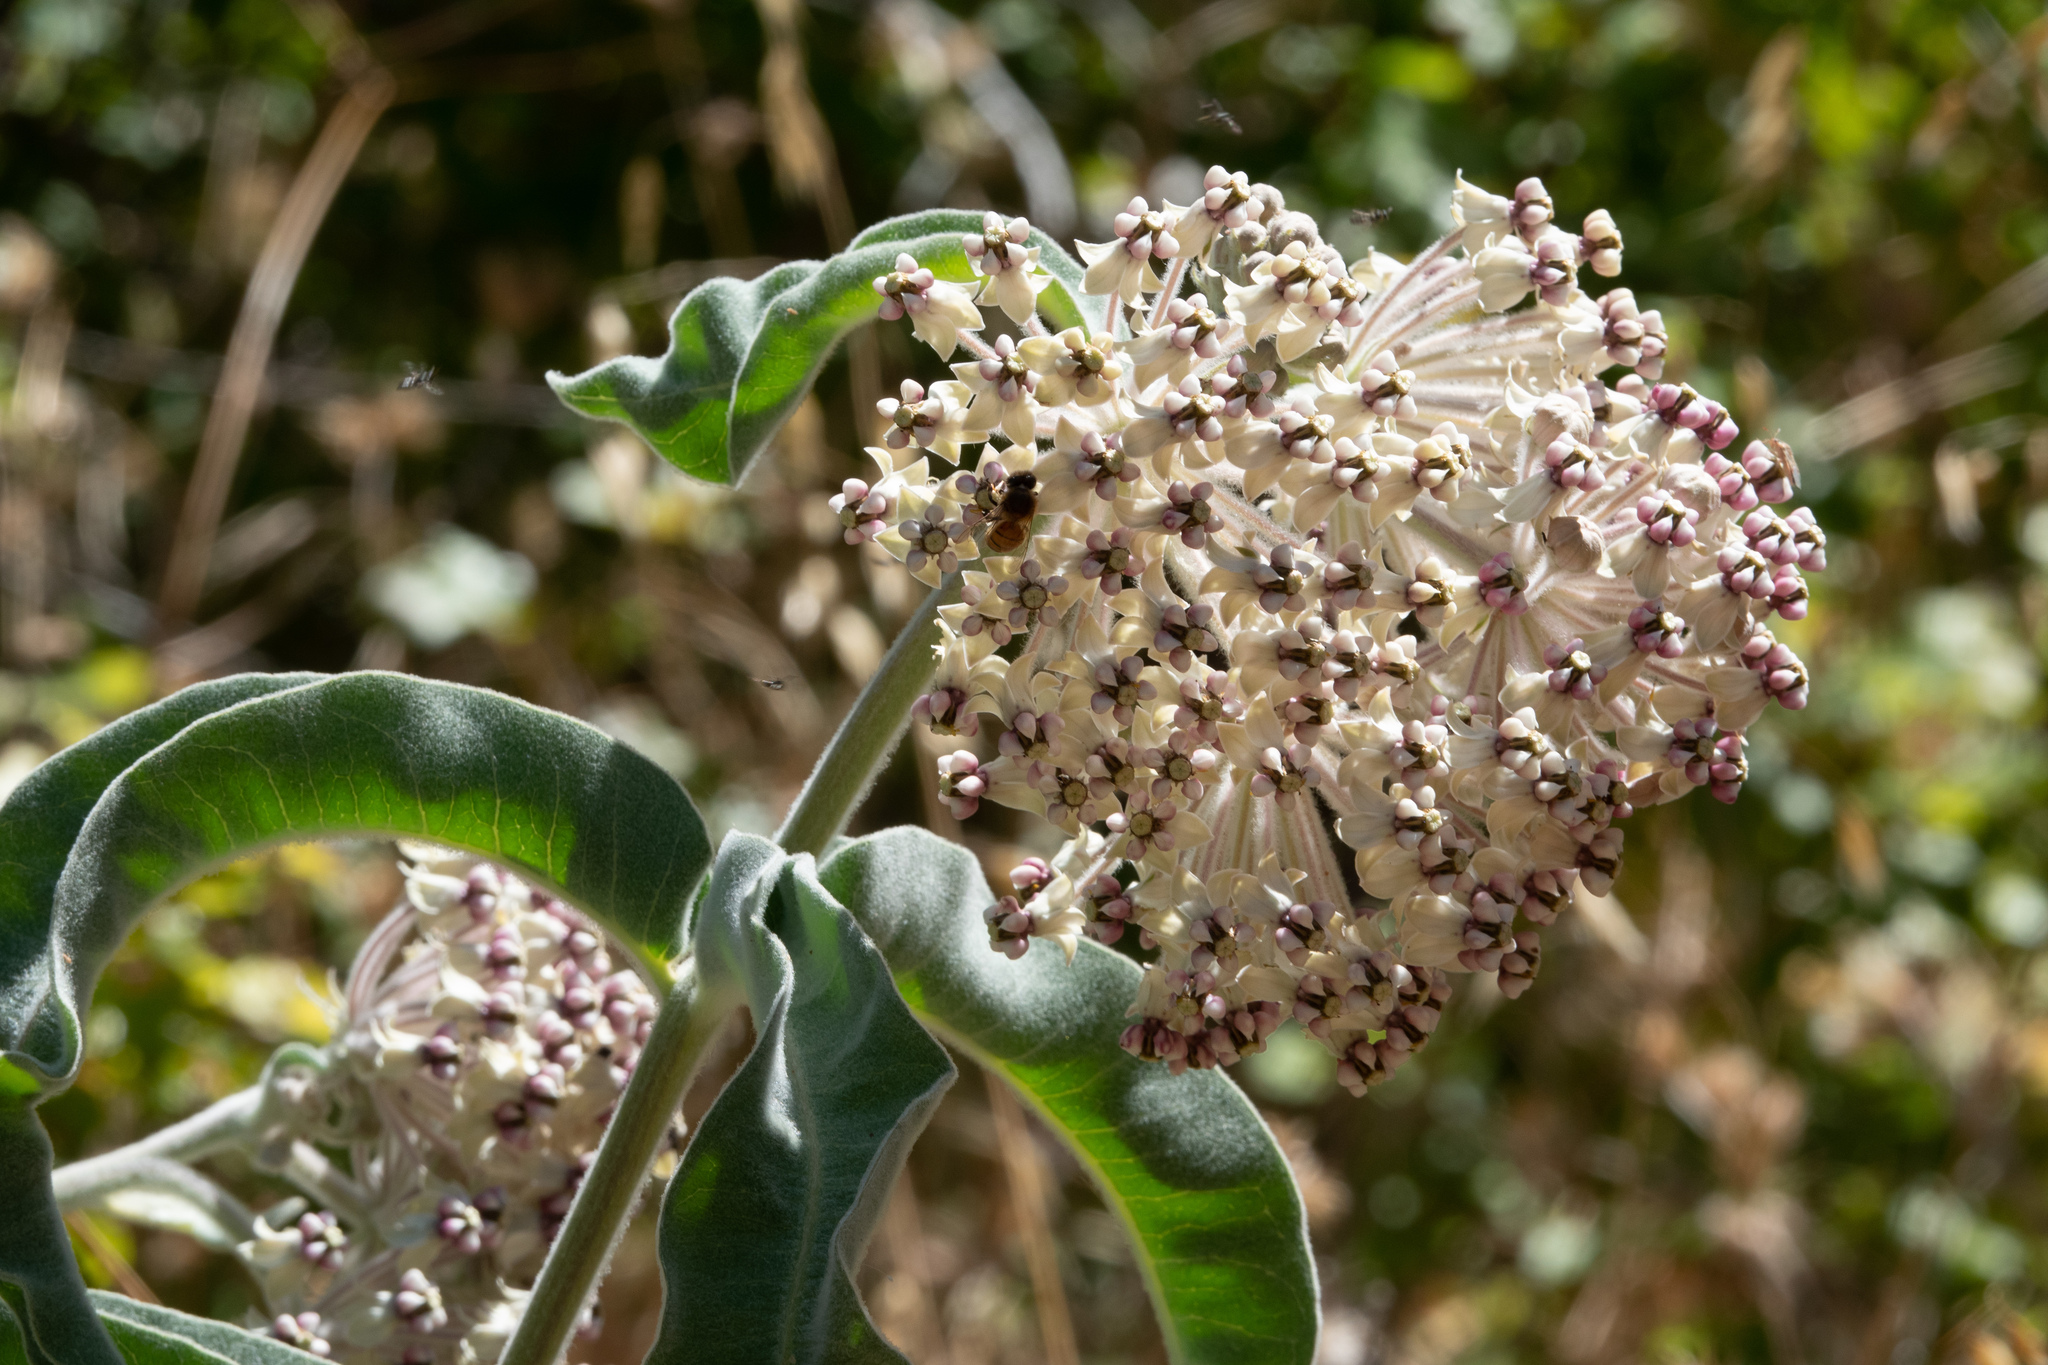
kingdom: Plantae
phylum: Tracheophyta
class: Magnoliopsida
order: Gentianales
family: Apocynaceae
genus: Asclepias
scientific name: Asclepias eriocarpa
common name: Indian milkweed
